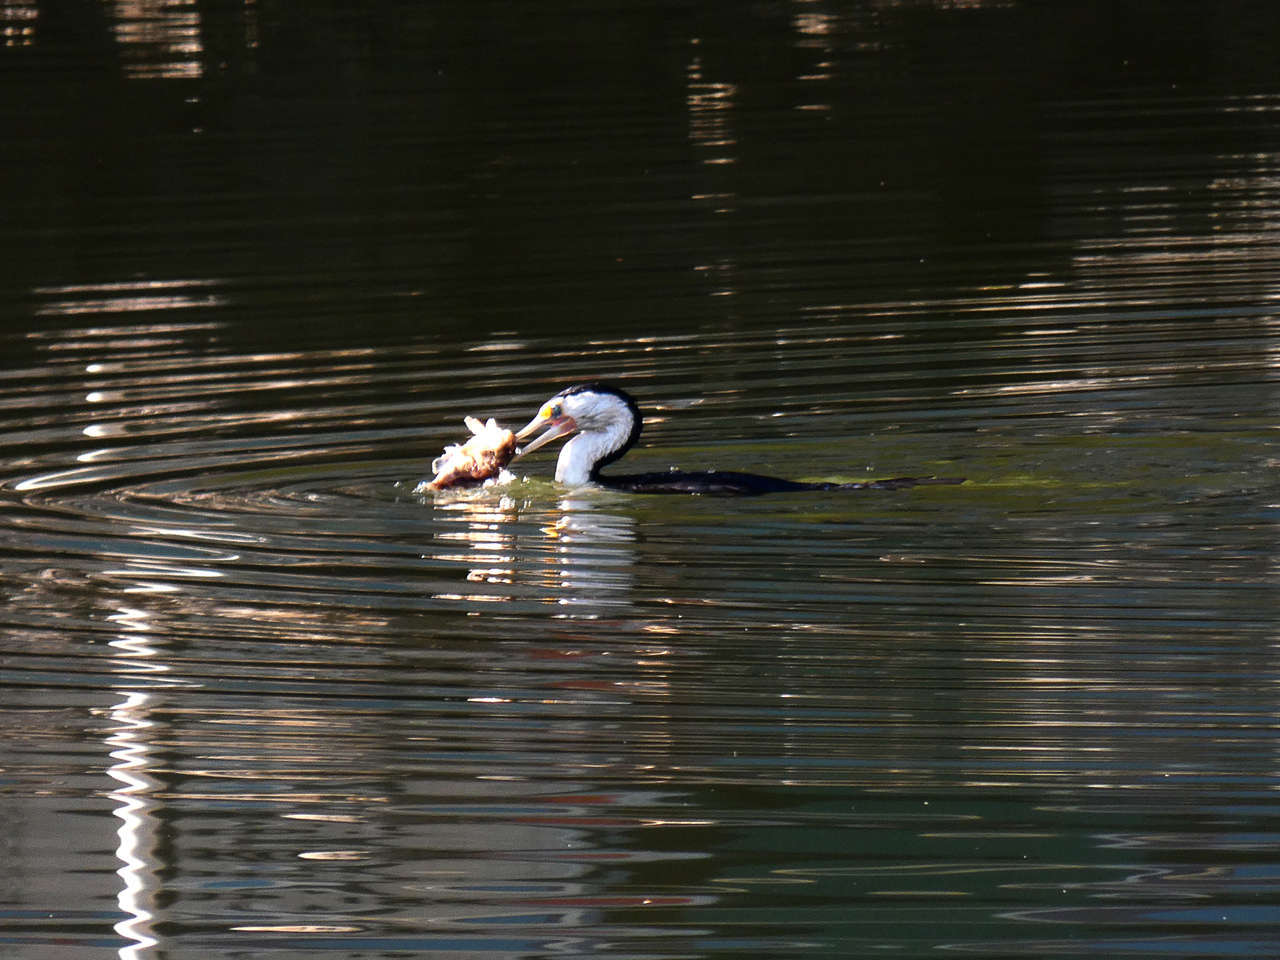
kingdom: Animalia
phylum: Chordata
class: Aves
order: Suliformes
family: Phalacrocoracidae
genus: Phalacrocorax
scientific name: Phalacrocorax varius
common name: Pied cormorant
